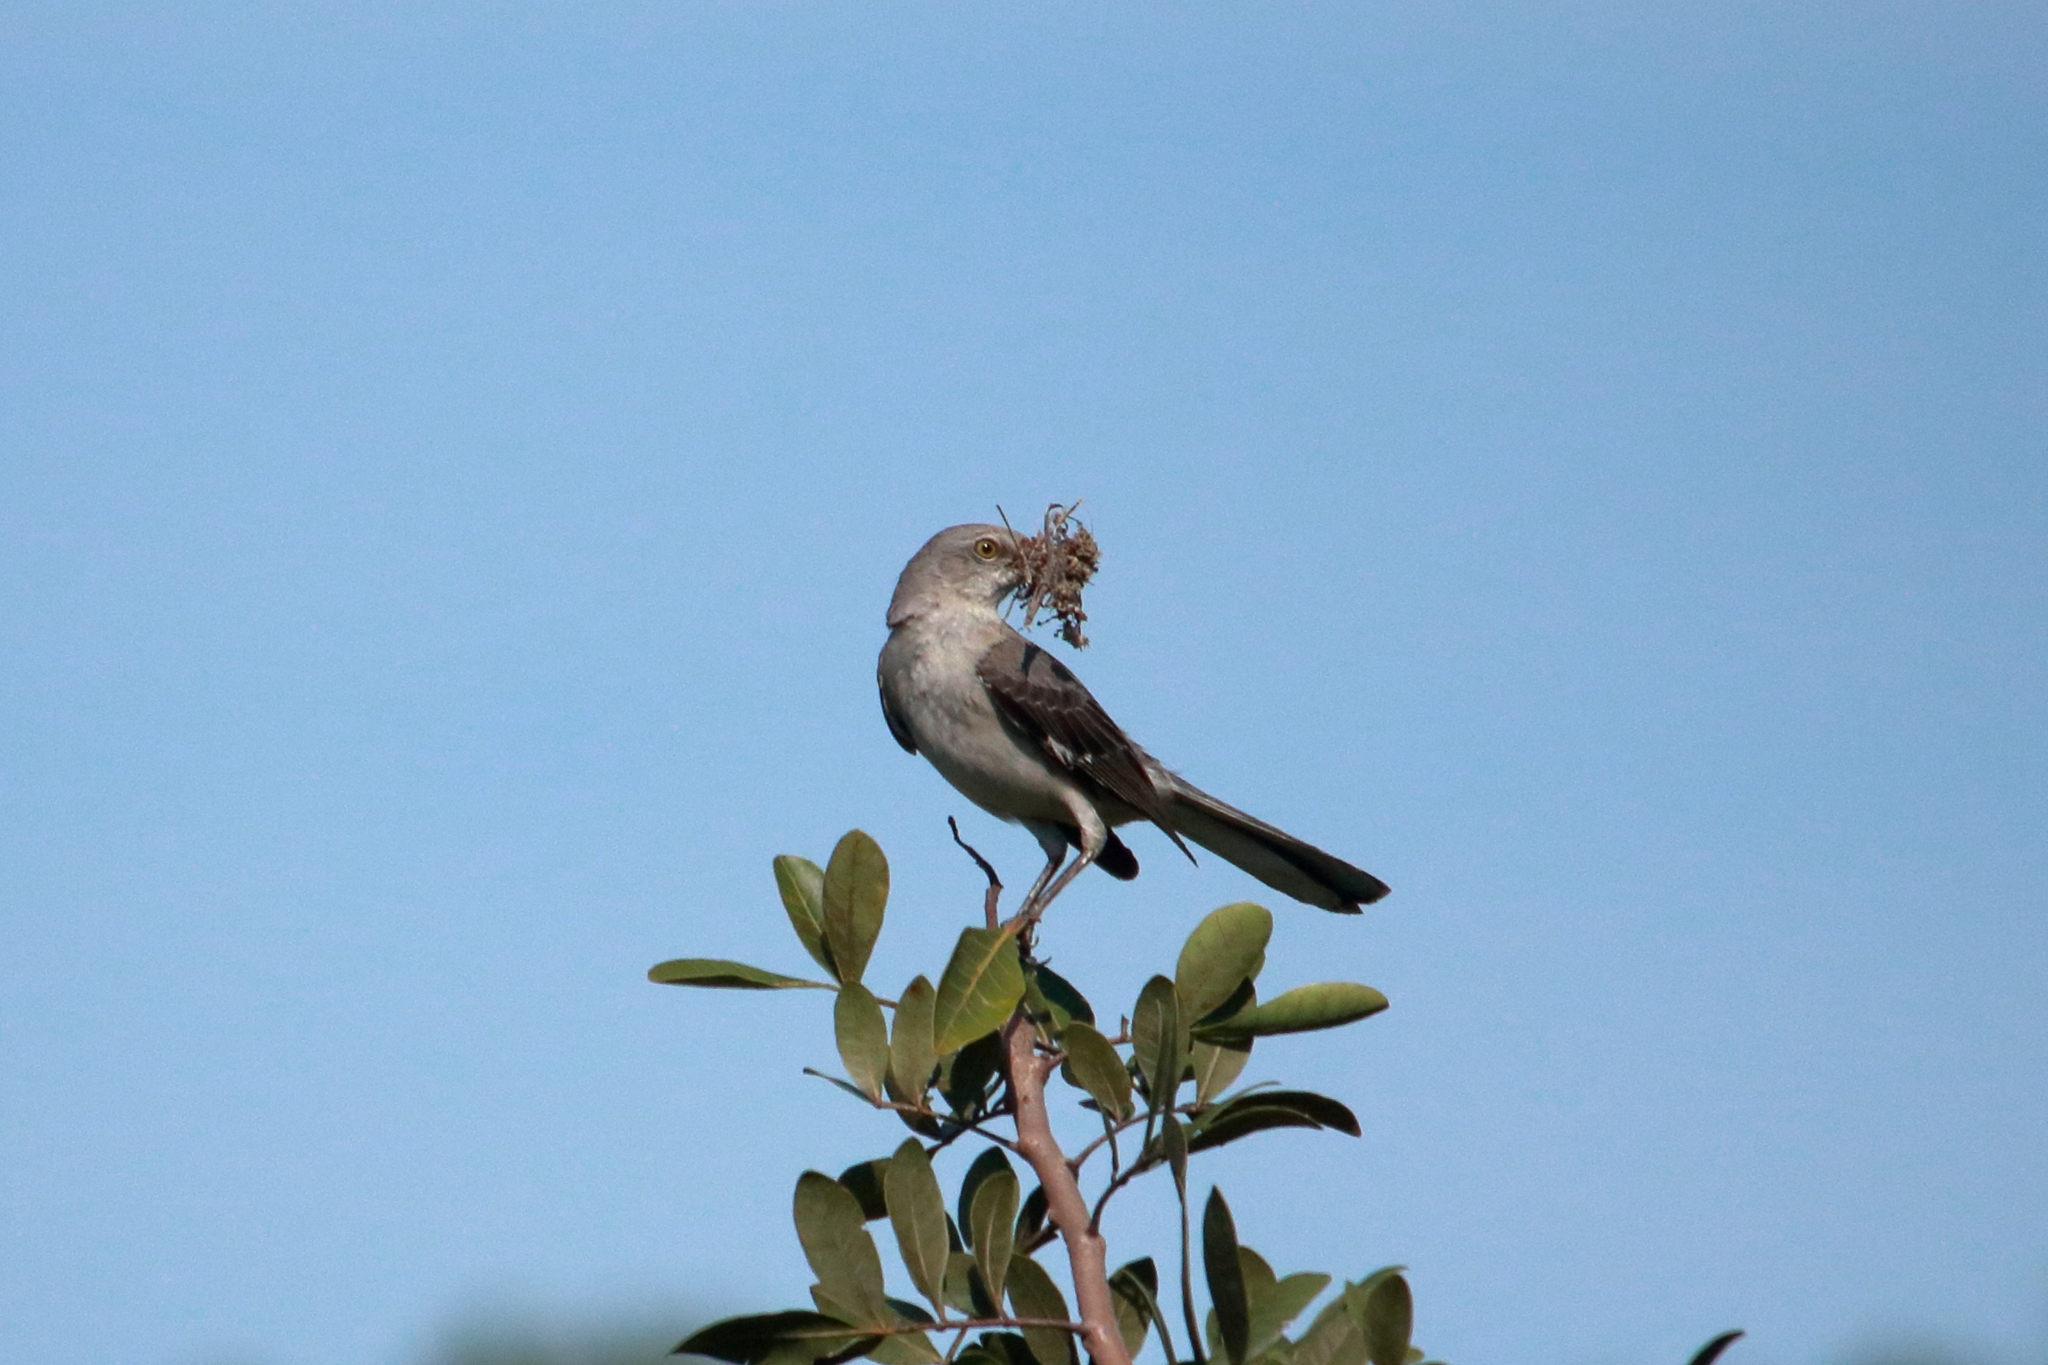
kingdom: Animalia
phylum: Chordata
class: Aves
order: Passeriformes
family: Mimidae
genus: Mimus
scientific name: Mimus polyglottos
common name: Northern mockingbird
